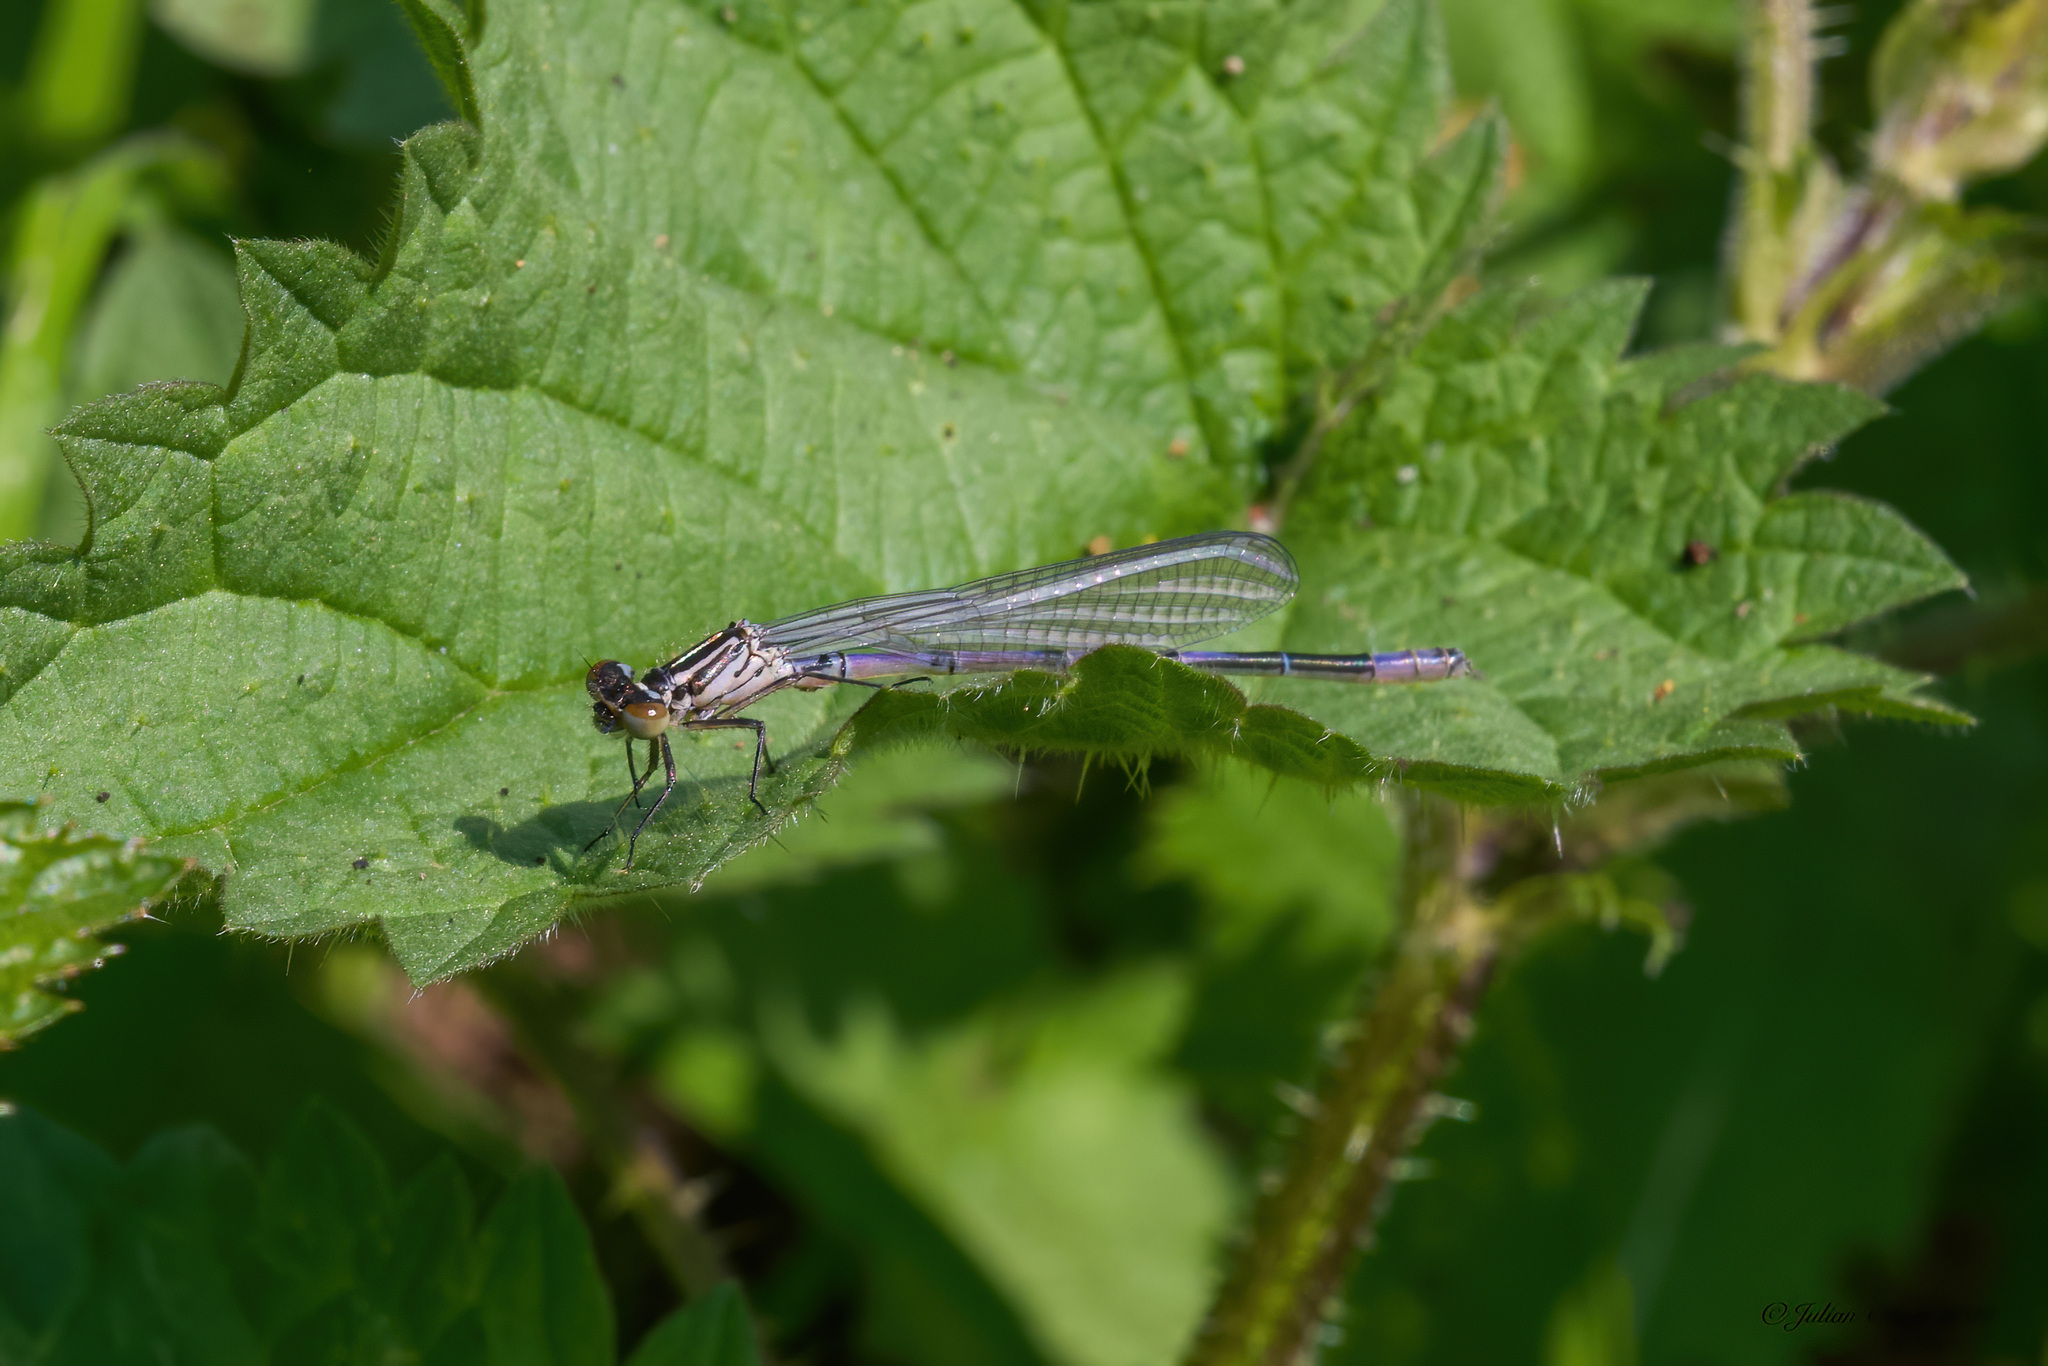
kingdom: Animalia
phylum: Arthropoda
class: Insecta
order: Odonata
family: Coenagrionidae
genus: Coenagrion
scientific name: Coenagrion puella
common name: Azure damselfly
